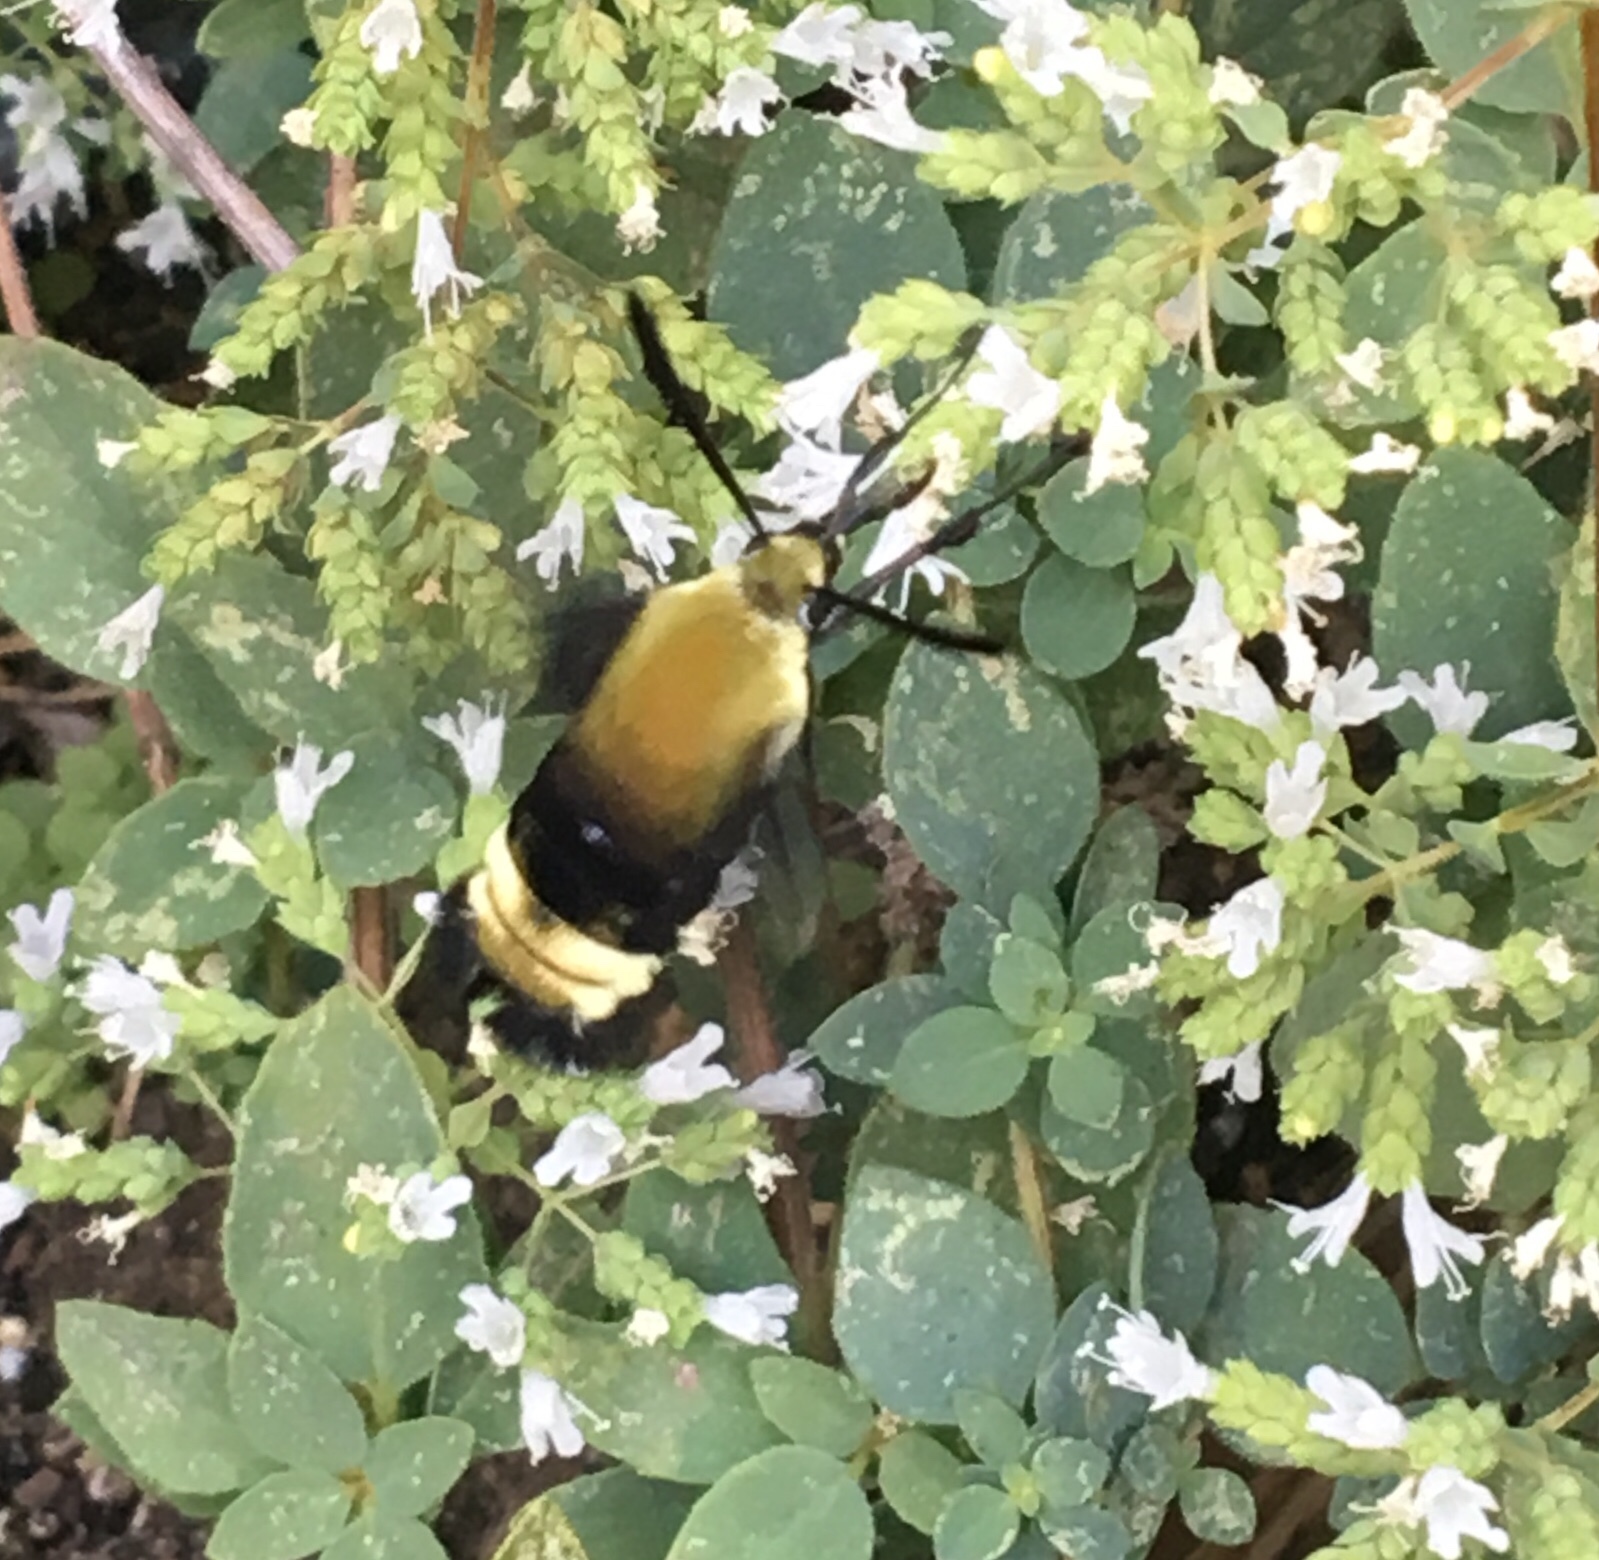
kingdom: Animalia
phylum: Arthropoda
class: Insecta
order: Lepidoptera
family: Sphingidae
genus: Hemaris
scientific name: Hemaris thetis
